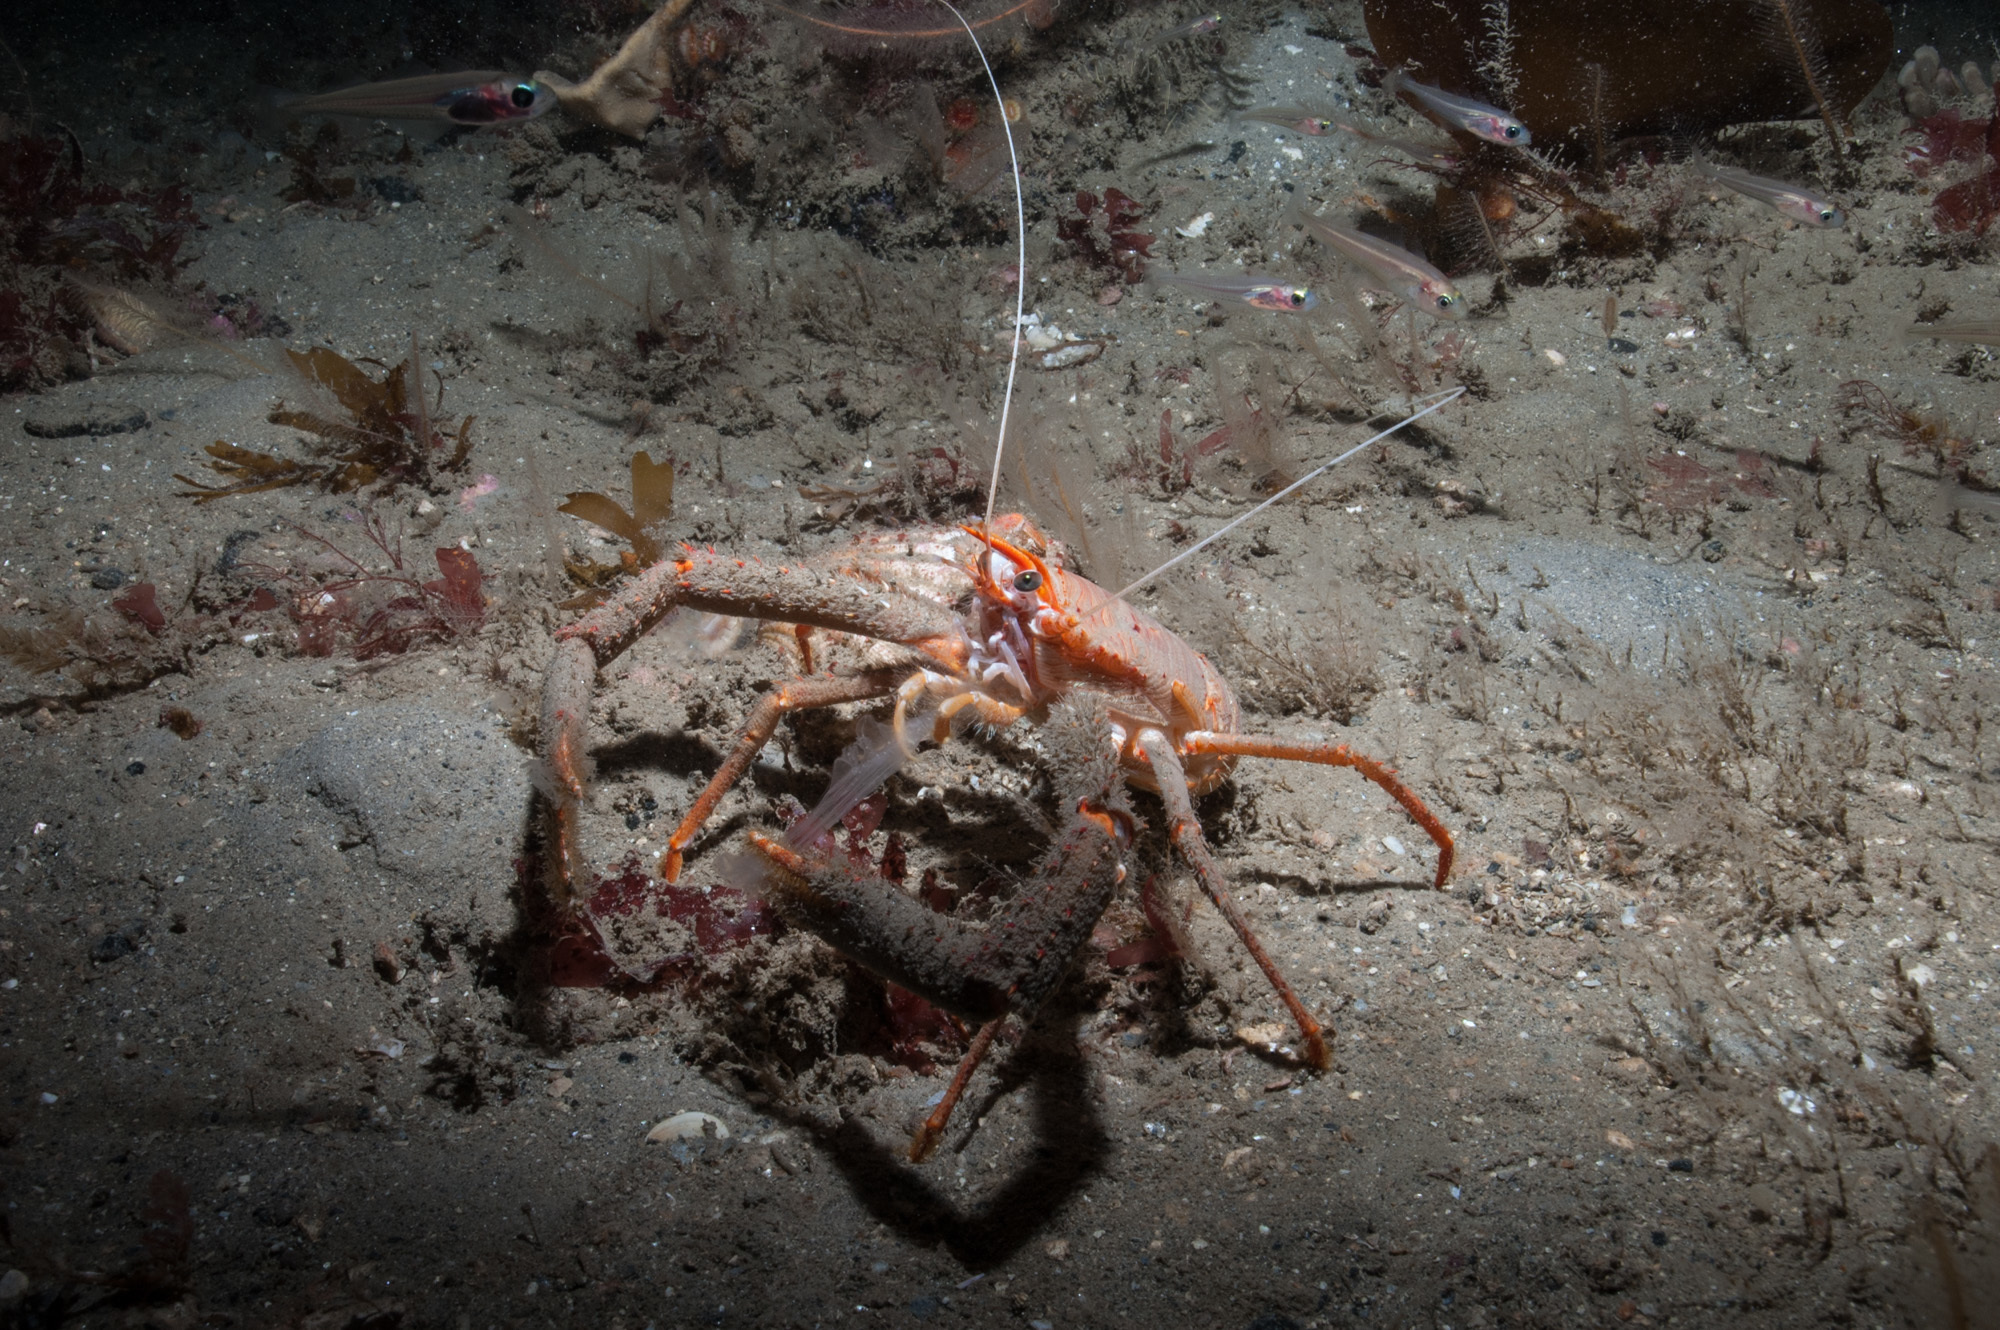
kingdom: Animalia
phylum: Arthropoda
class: Malacostraca
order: Decapoda
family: Munididae
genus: Munida
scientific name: Munida rugosa
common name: Rugose squat lobster
